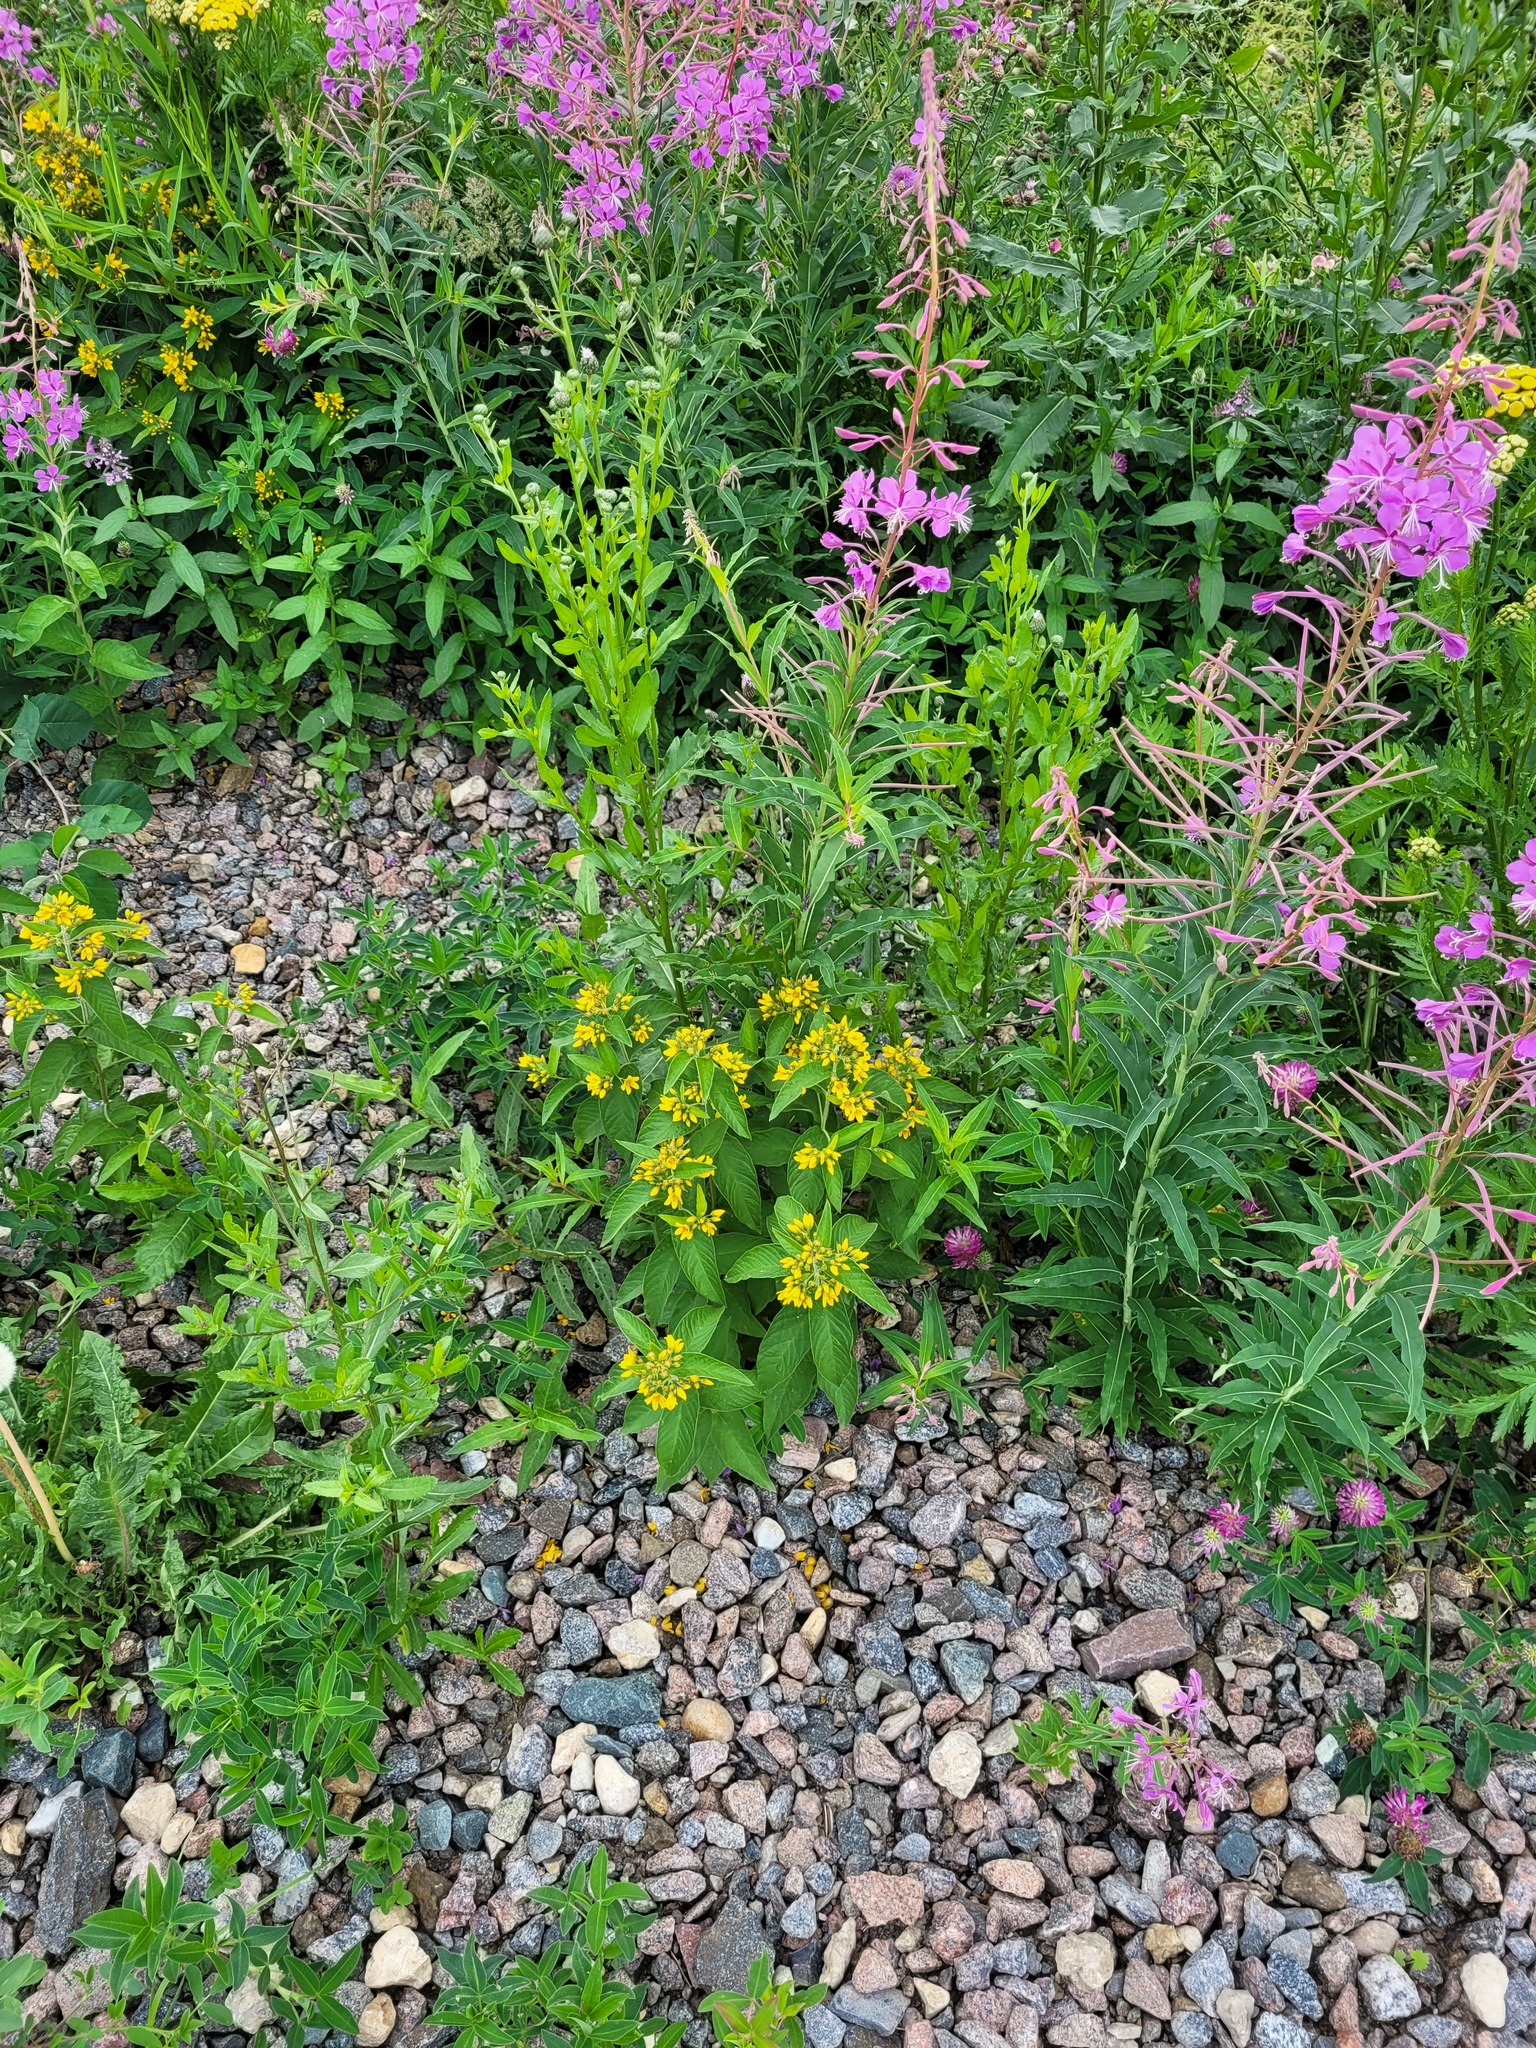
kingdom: Plantae
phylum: Tracheophyta
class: Magnoliopsida
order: Ericales
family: Primulaceae
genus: Lysimachia
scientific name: Lysimachia vulgaris
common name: Yellow loosestrife
